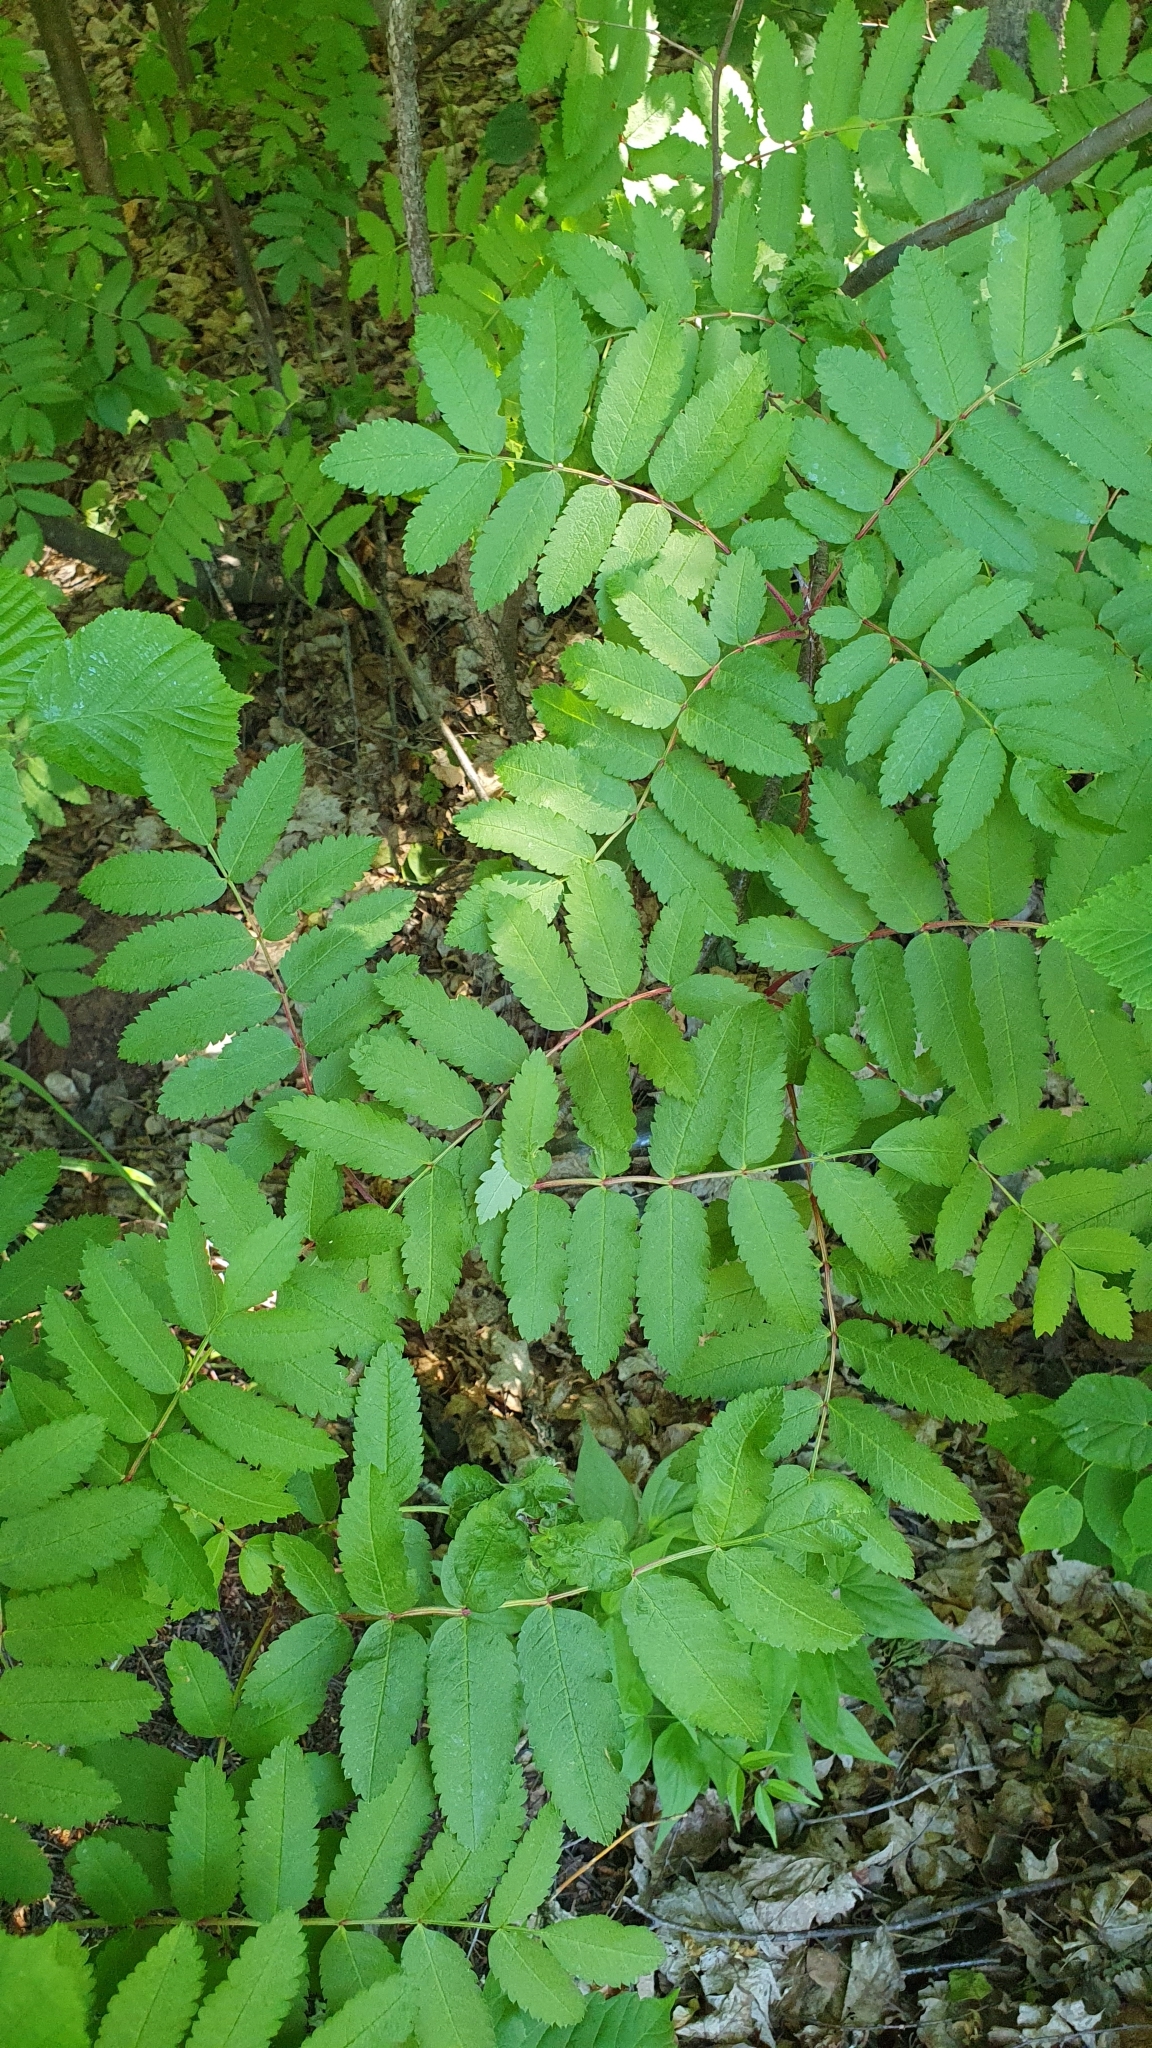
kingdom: Plantae
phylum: Tracheophyta
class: Magnoliopsida
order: Rosales
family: Rosaceae
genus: Sorbus
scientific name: Sorbus aucuparia
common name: Rowan
